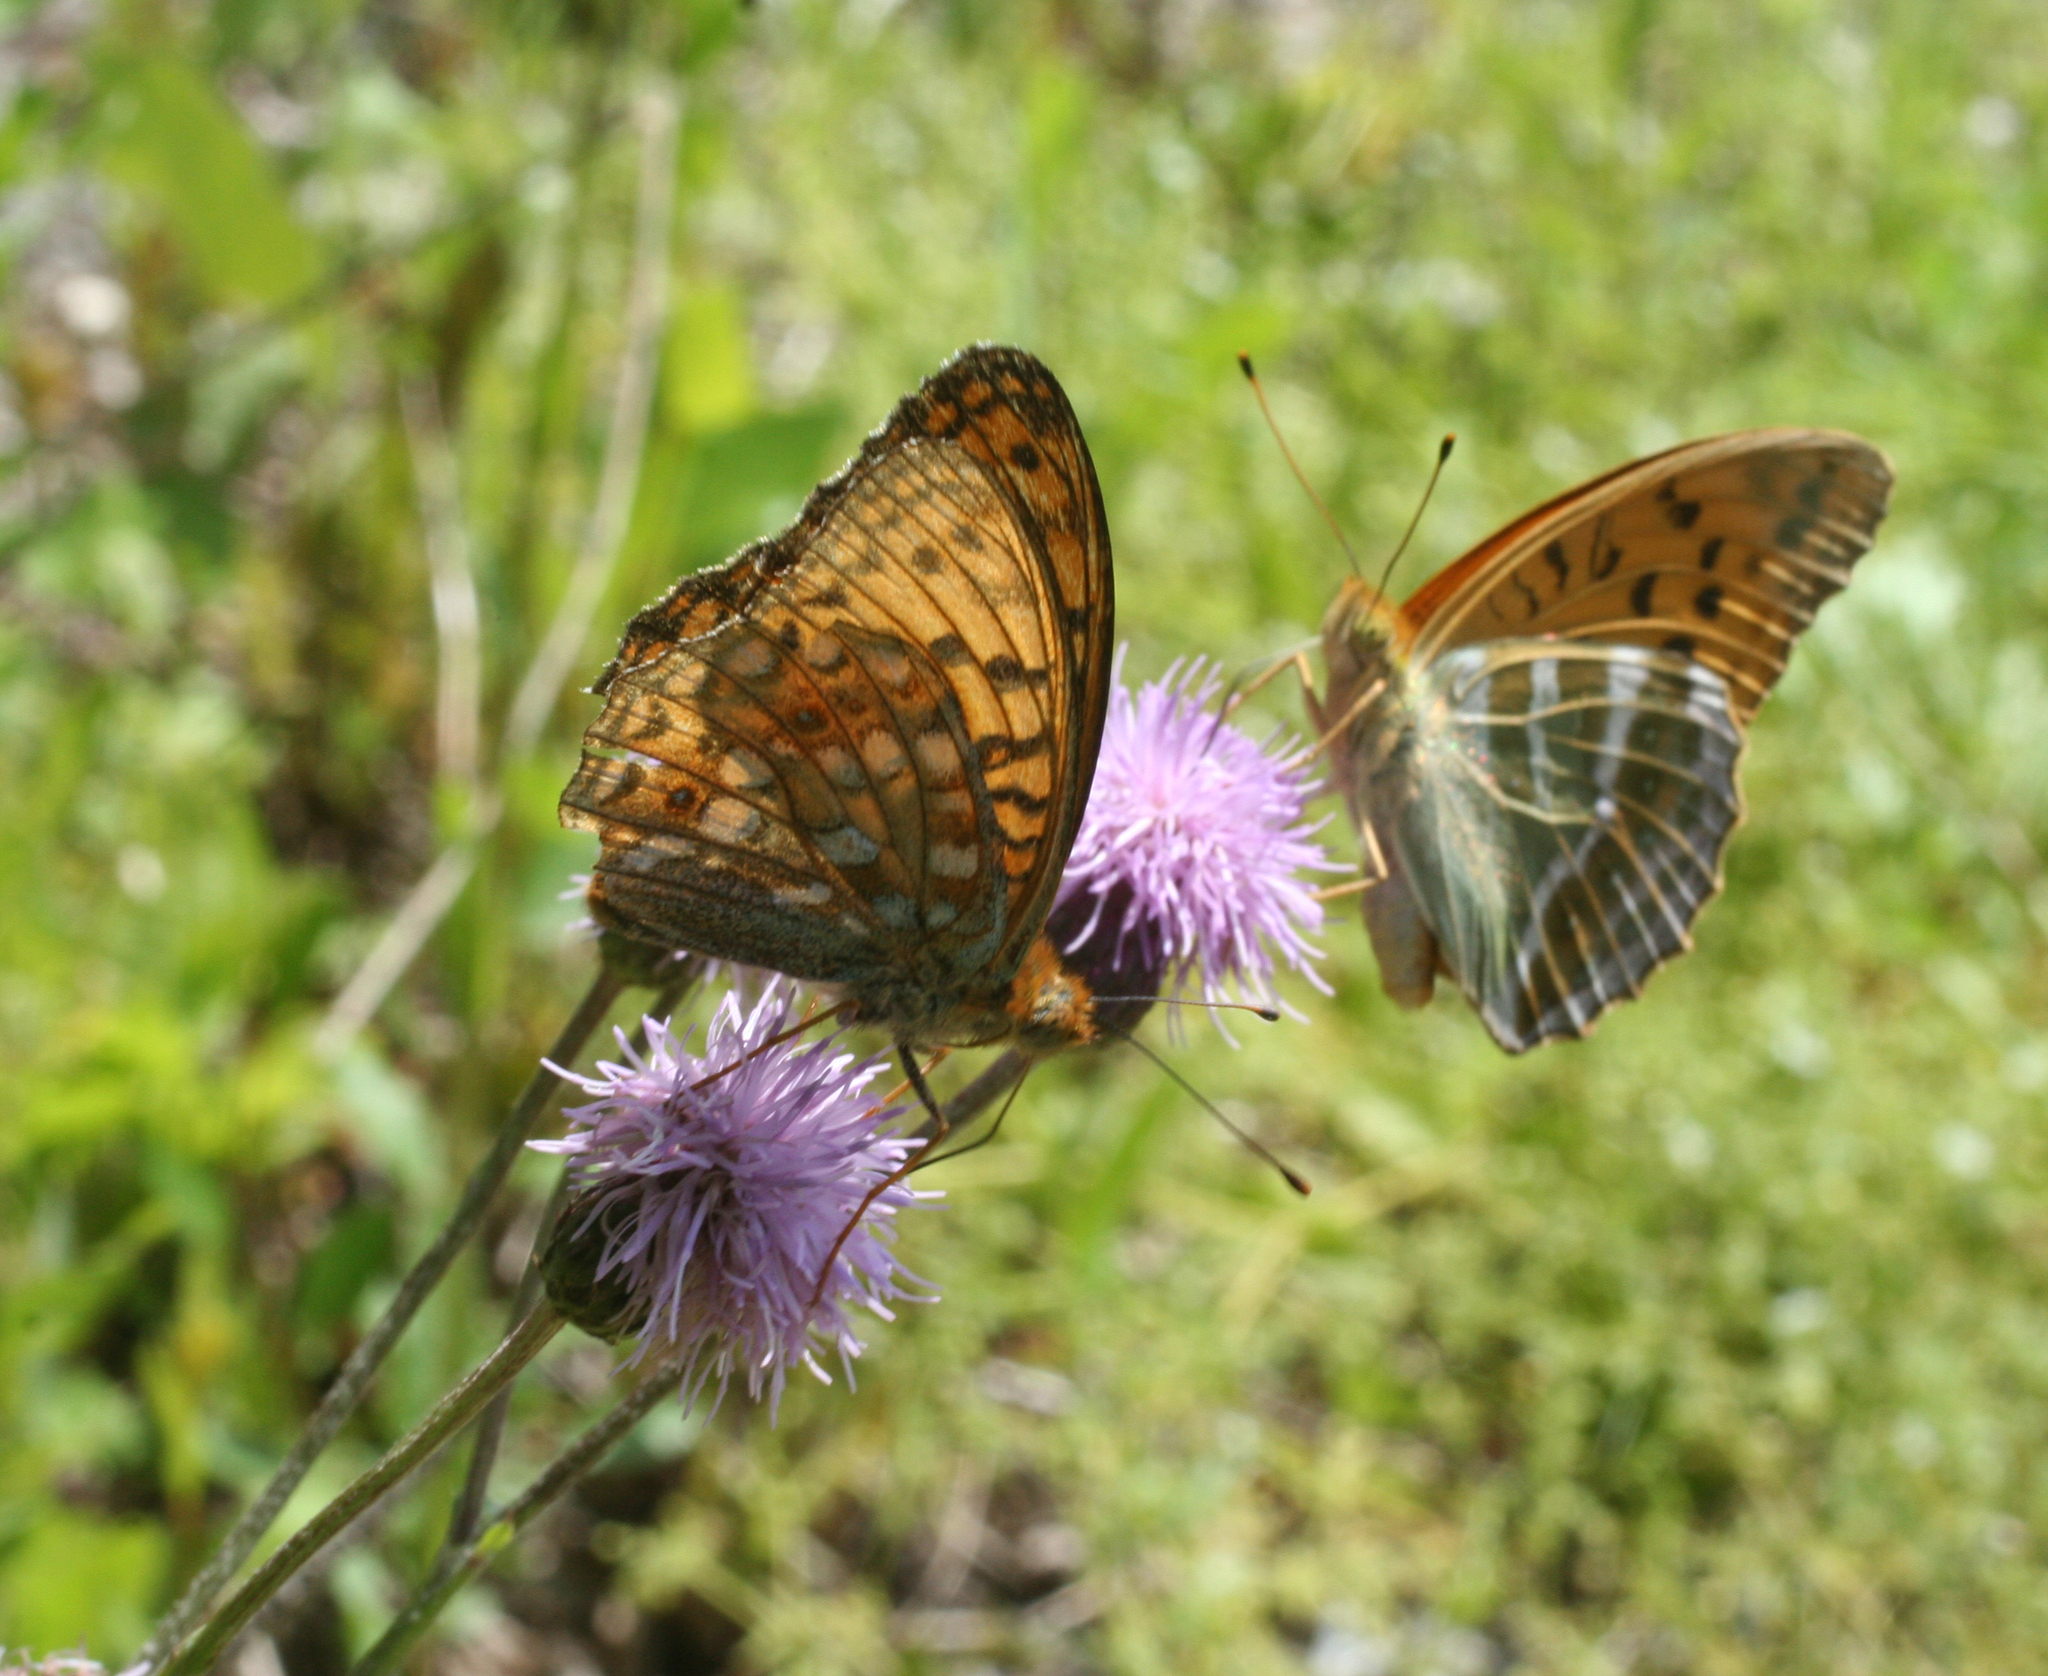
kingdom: Plantae
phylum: Tracheophyta
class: Magnoliopsida
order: Asterales
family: Asteraceae
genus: Cirsium
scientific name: Cirsium arvense
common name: Creeping thistle
